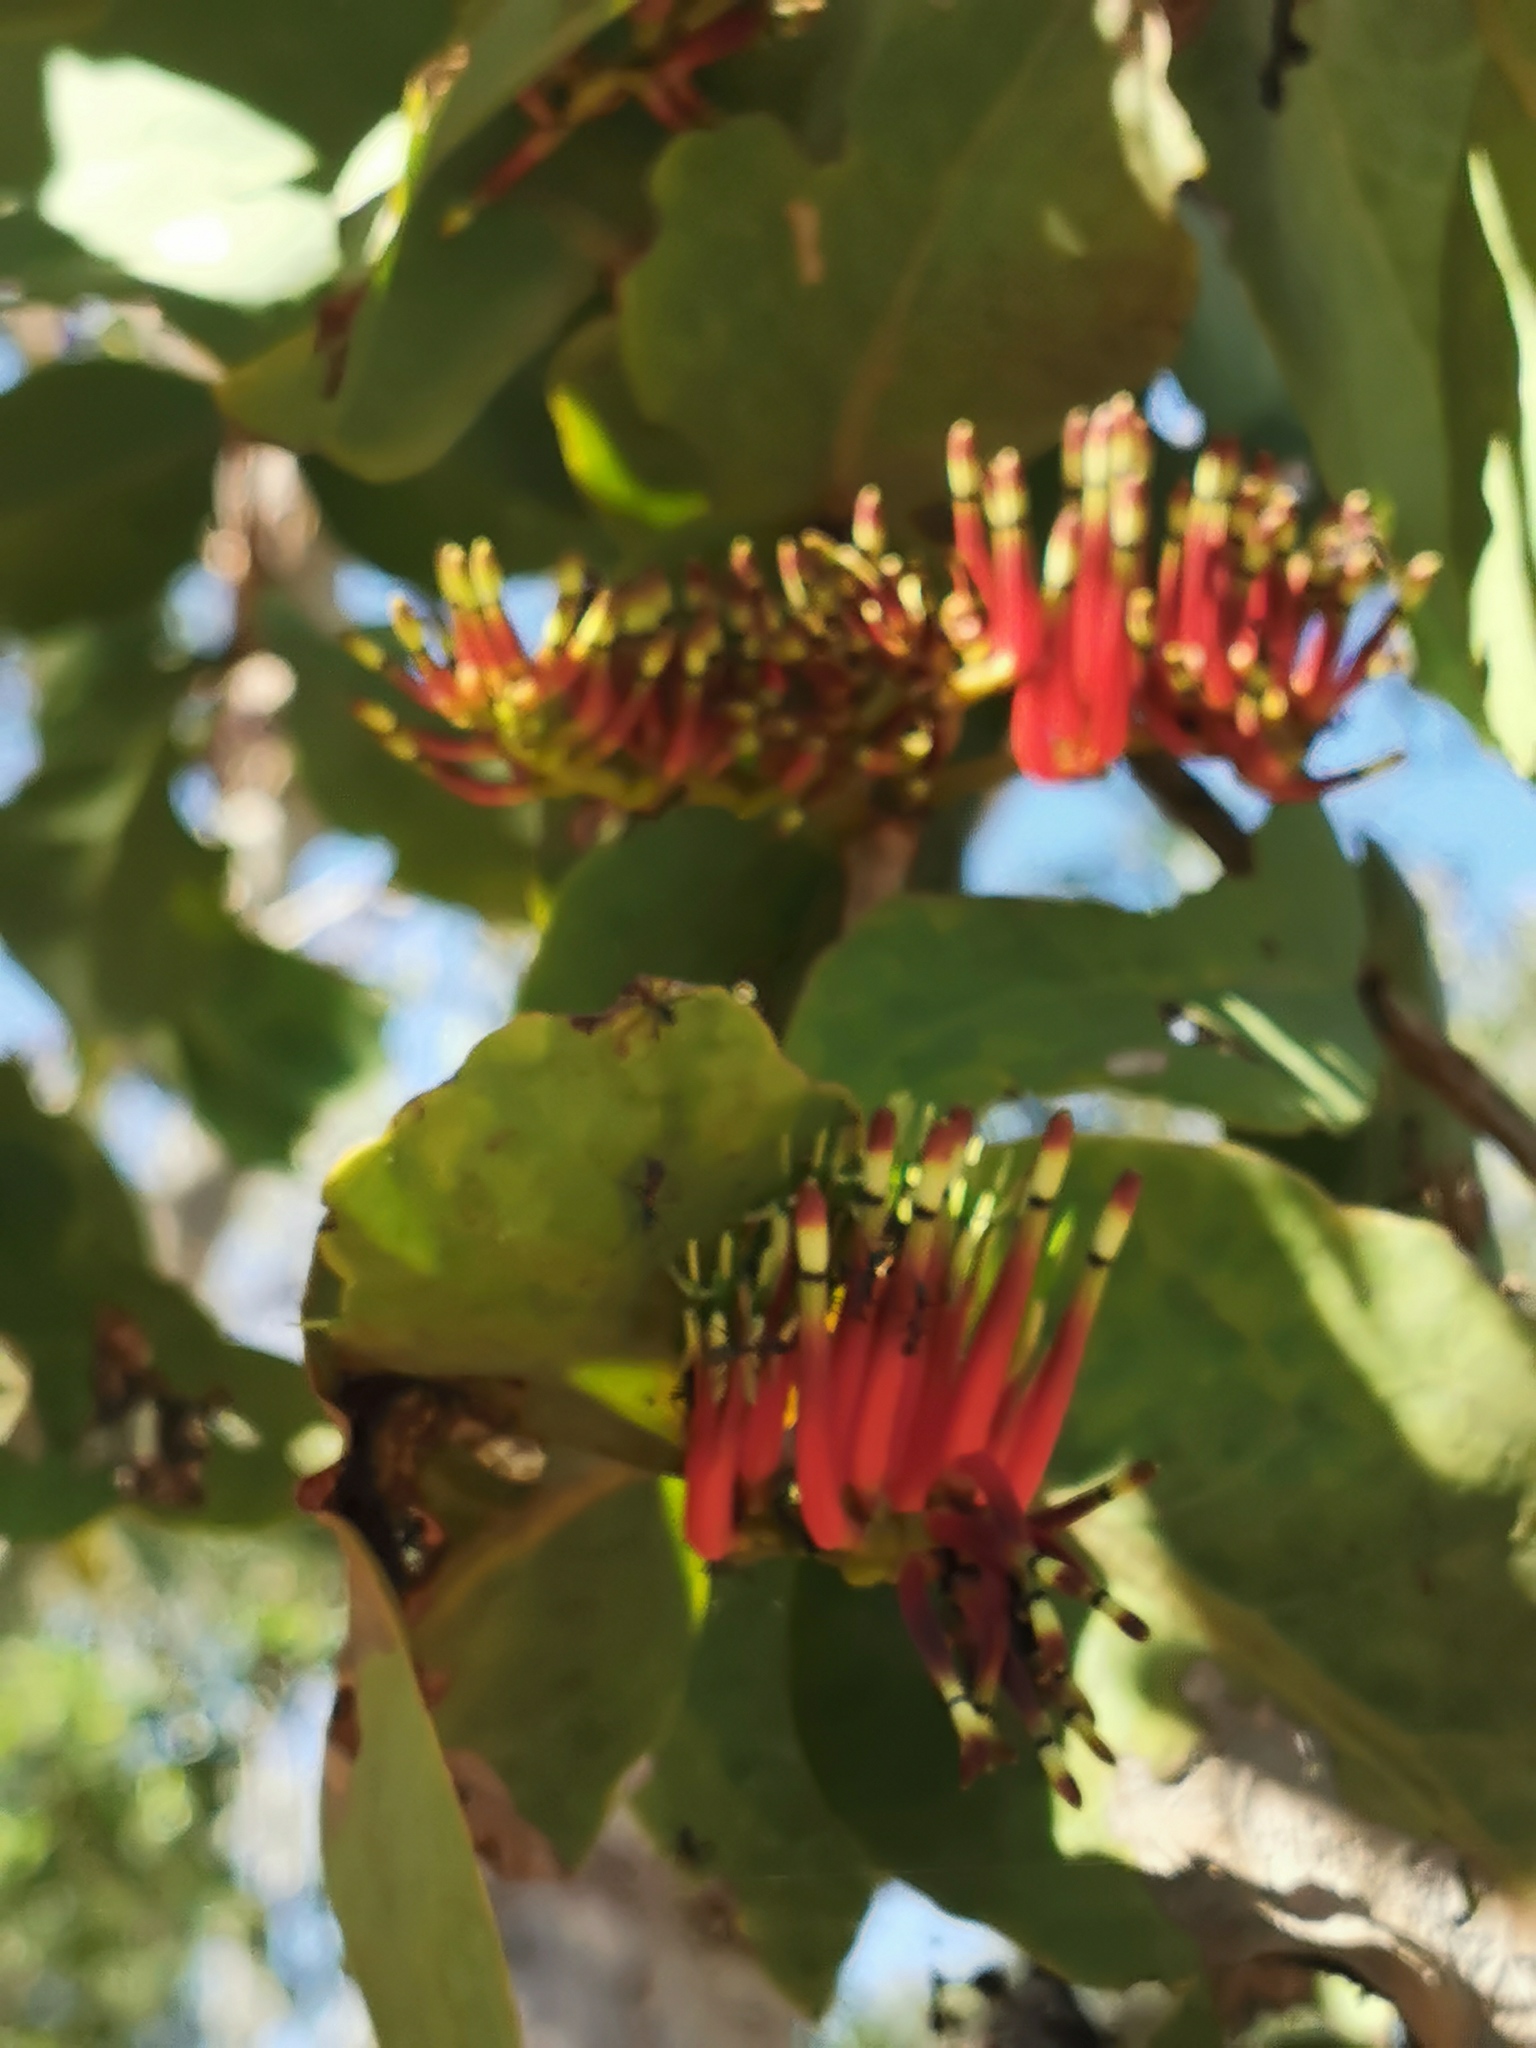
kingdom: Plantae
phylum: Tracheophyta
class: Magnoliopsida
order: Santalales
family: Loranthaceae
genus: Decaisnina
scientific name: Decaisnina signata
